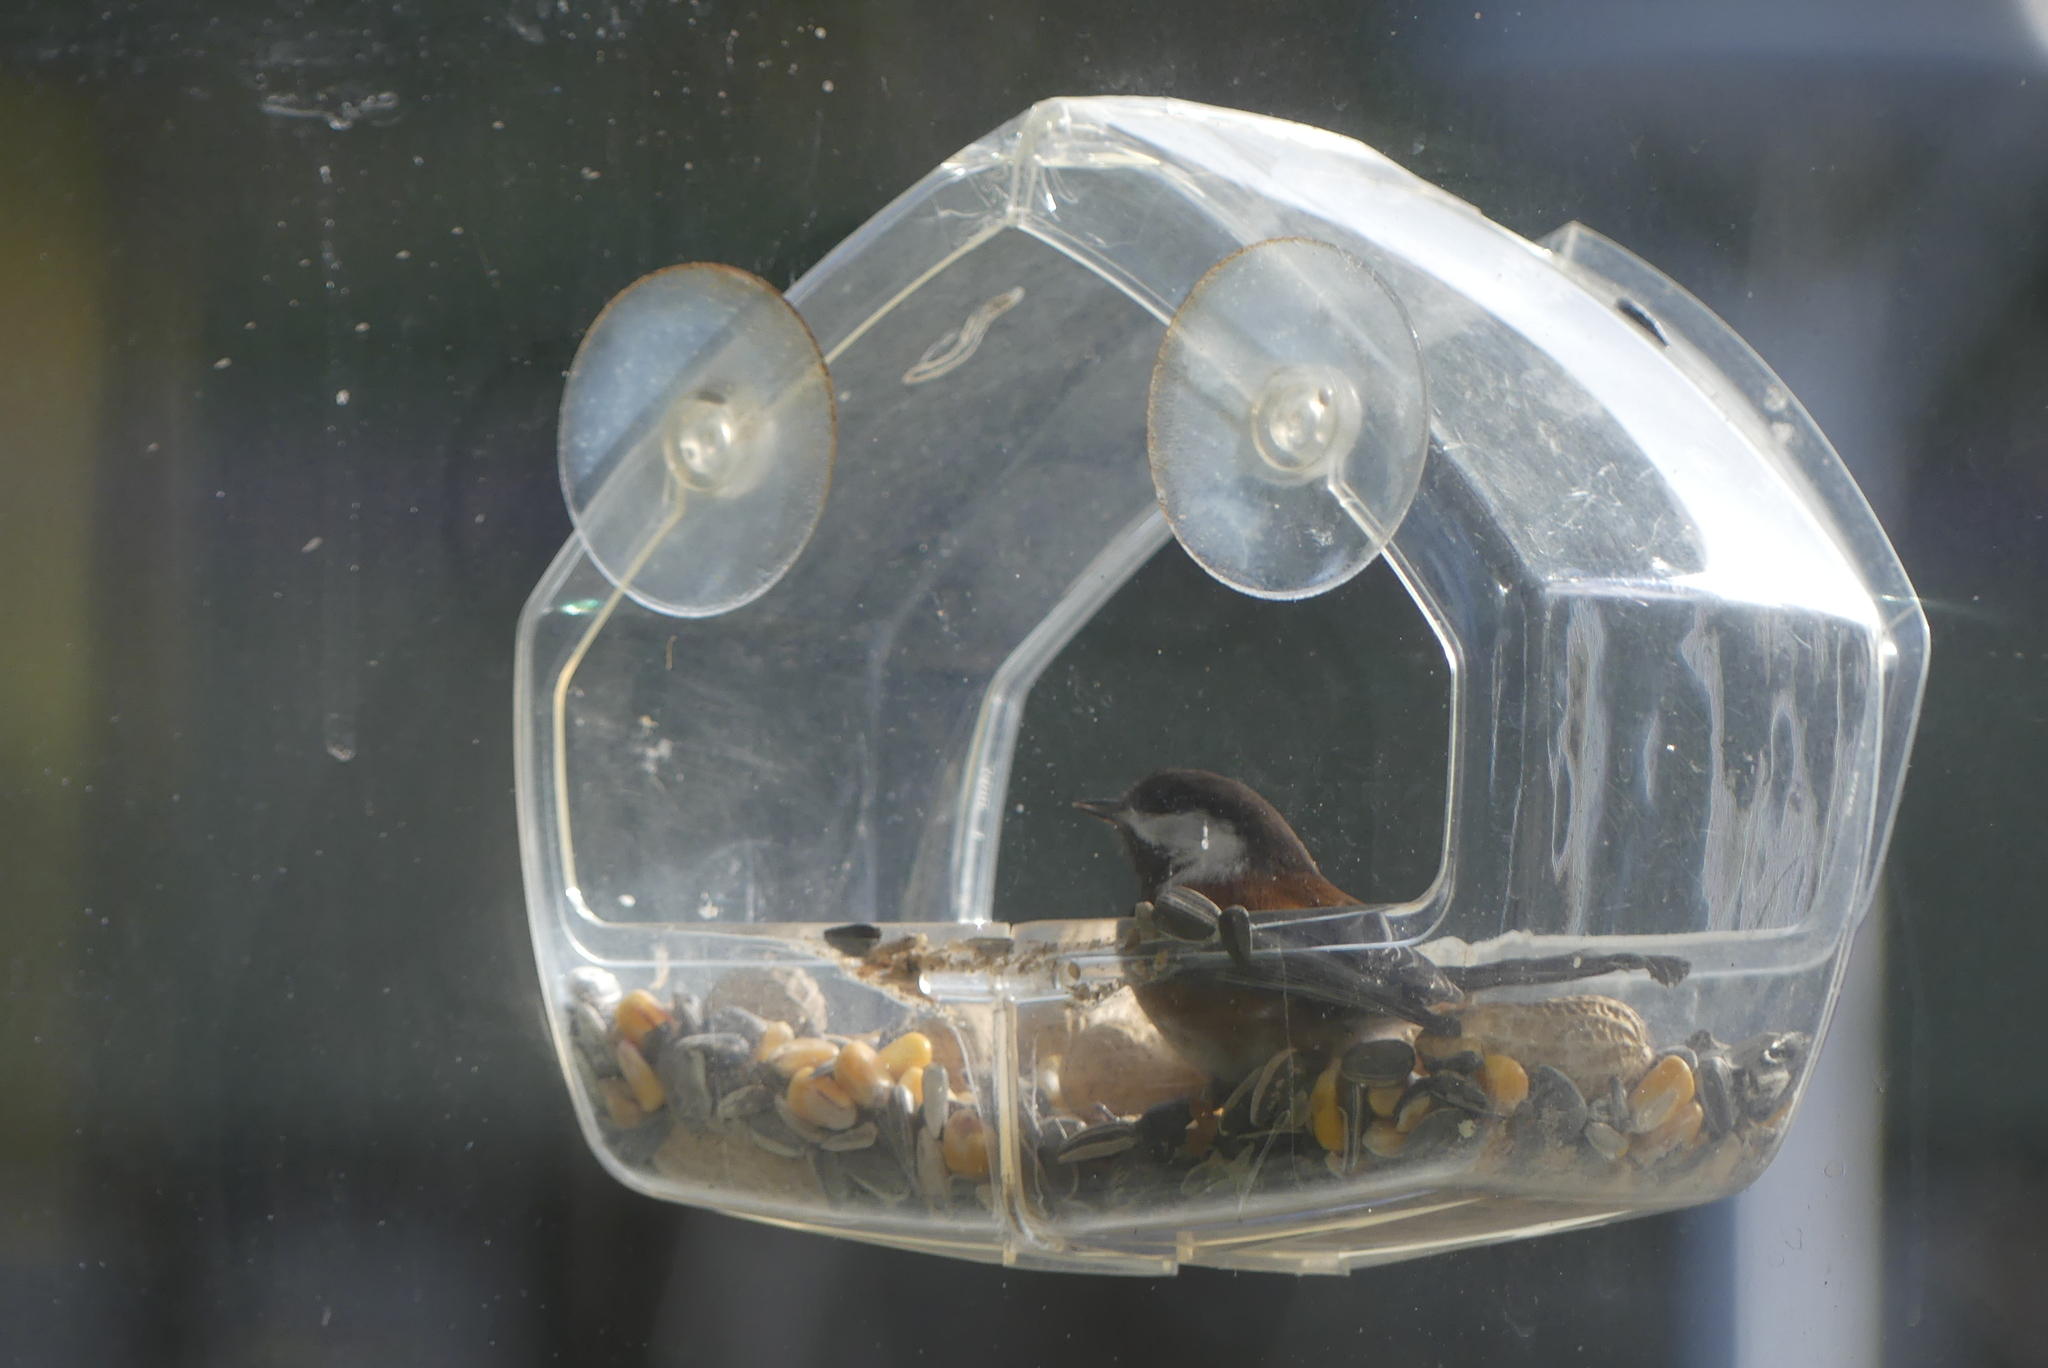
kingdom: Animalia
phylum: Chordata
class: Aves
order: Passeriformes
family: Paridae
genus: Poecile
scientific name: Poecile rufescens
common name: Chestnut-backed chickadee
